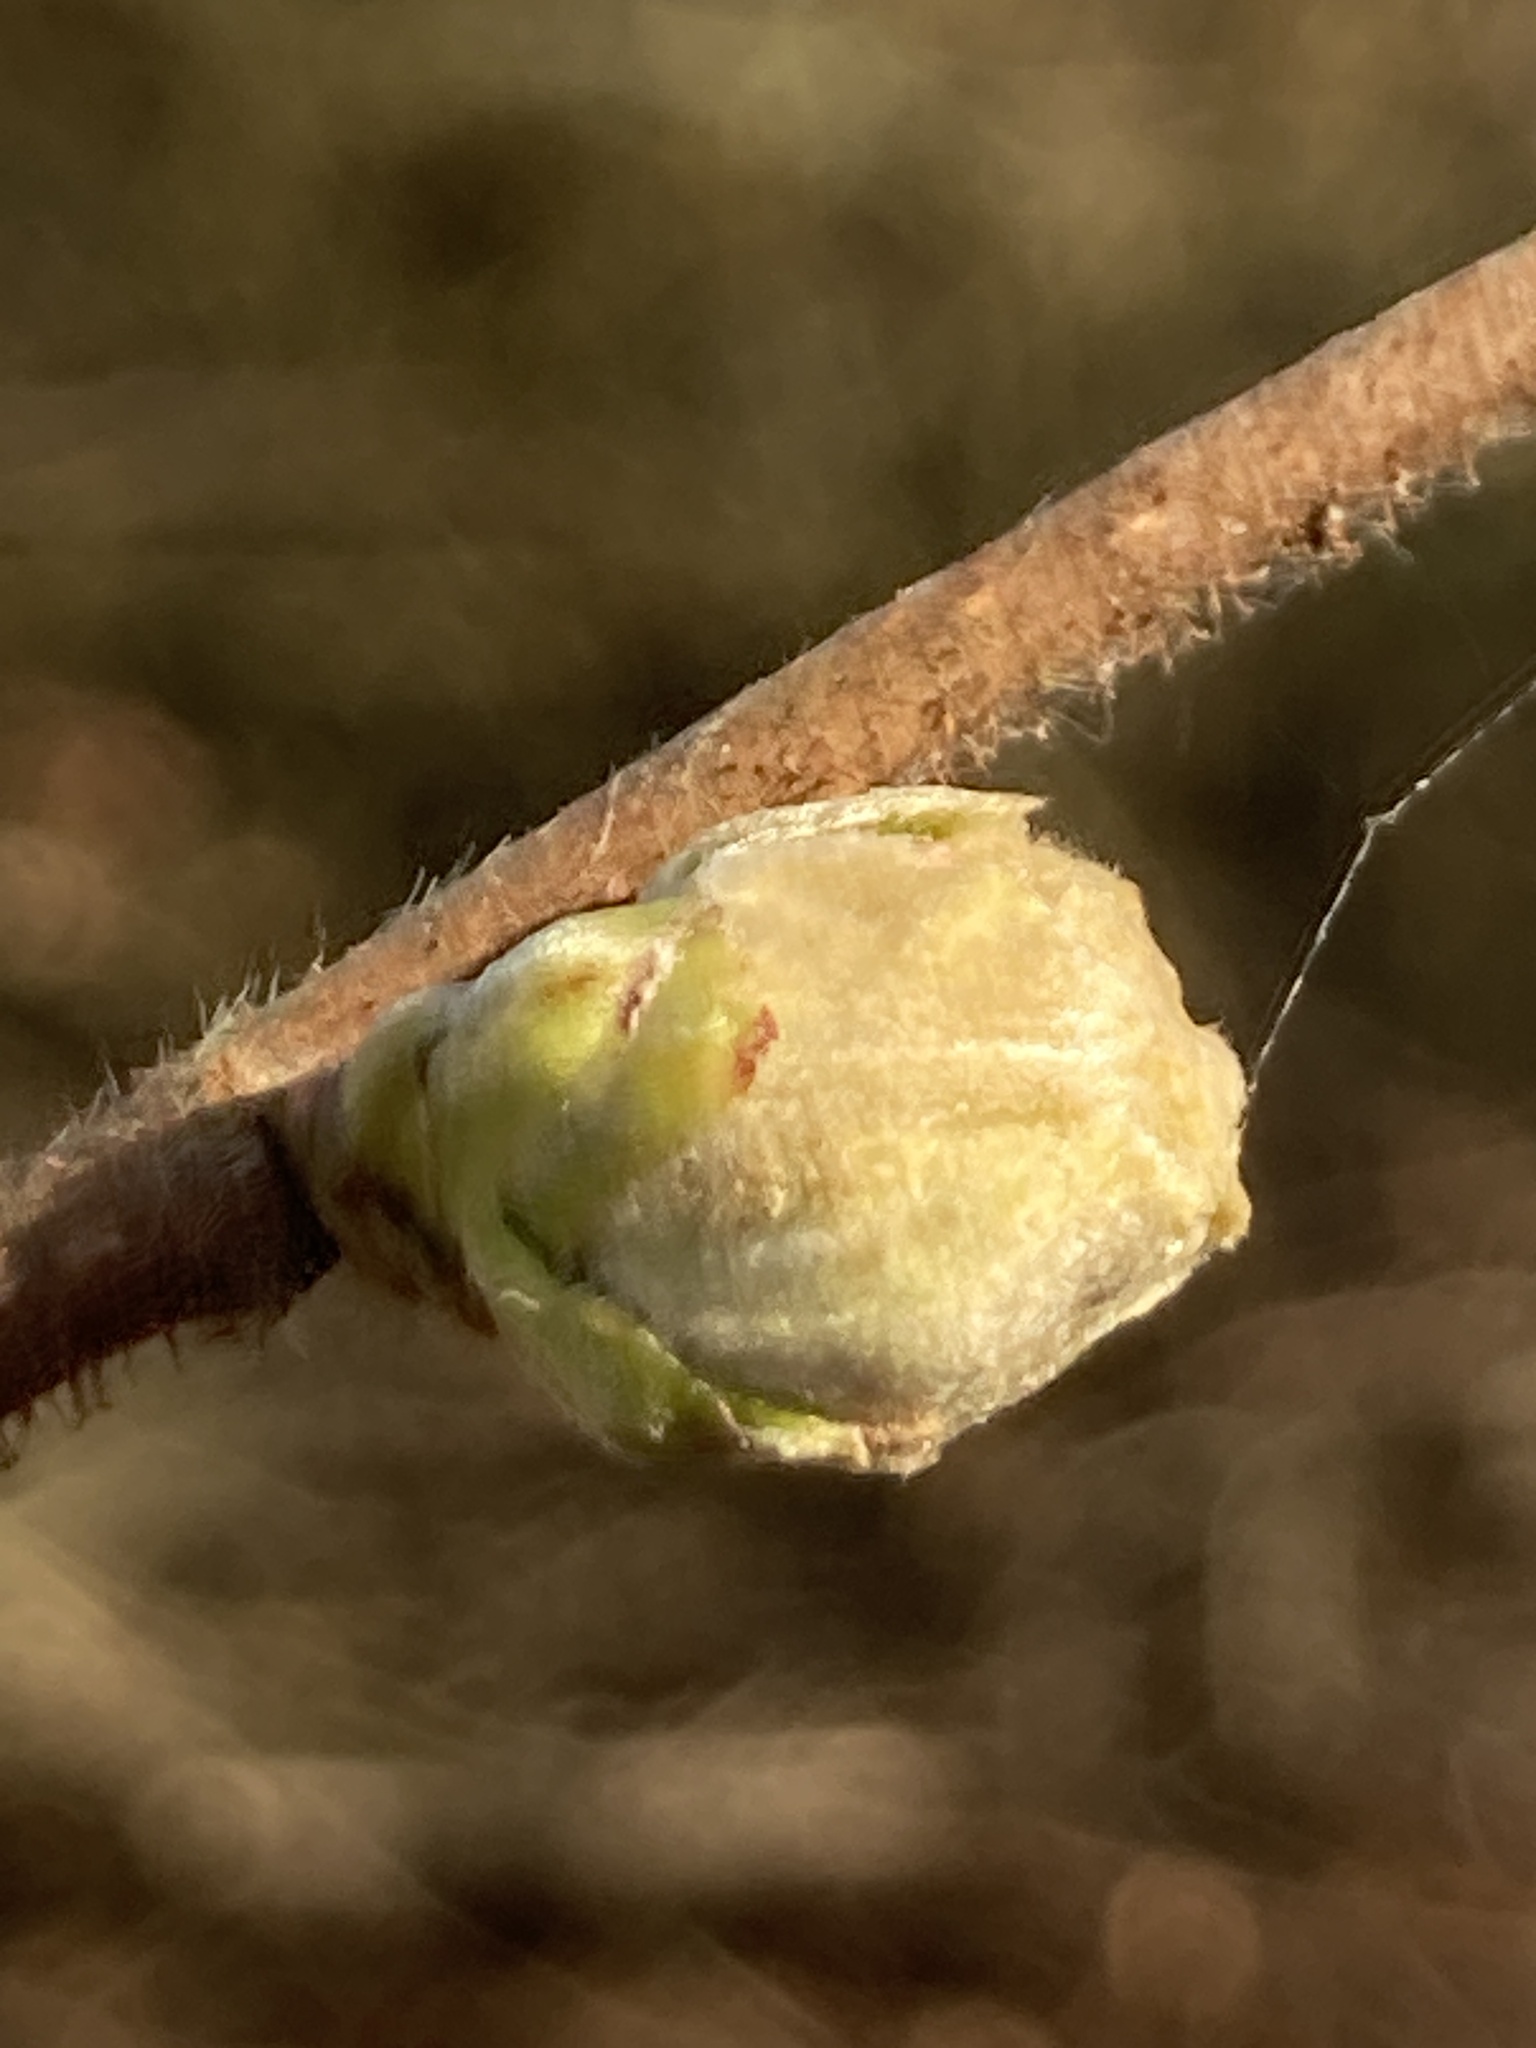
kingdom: Animalia
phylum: Arthropoda
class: Arachnida
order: Trombidiformes
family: Phytoptidae
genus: Phytoptus
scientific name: Phytoptus avellanae
